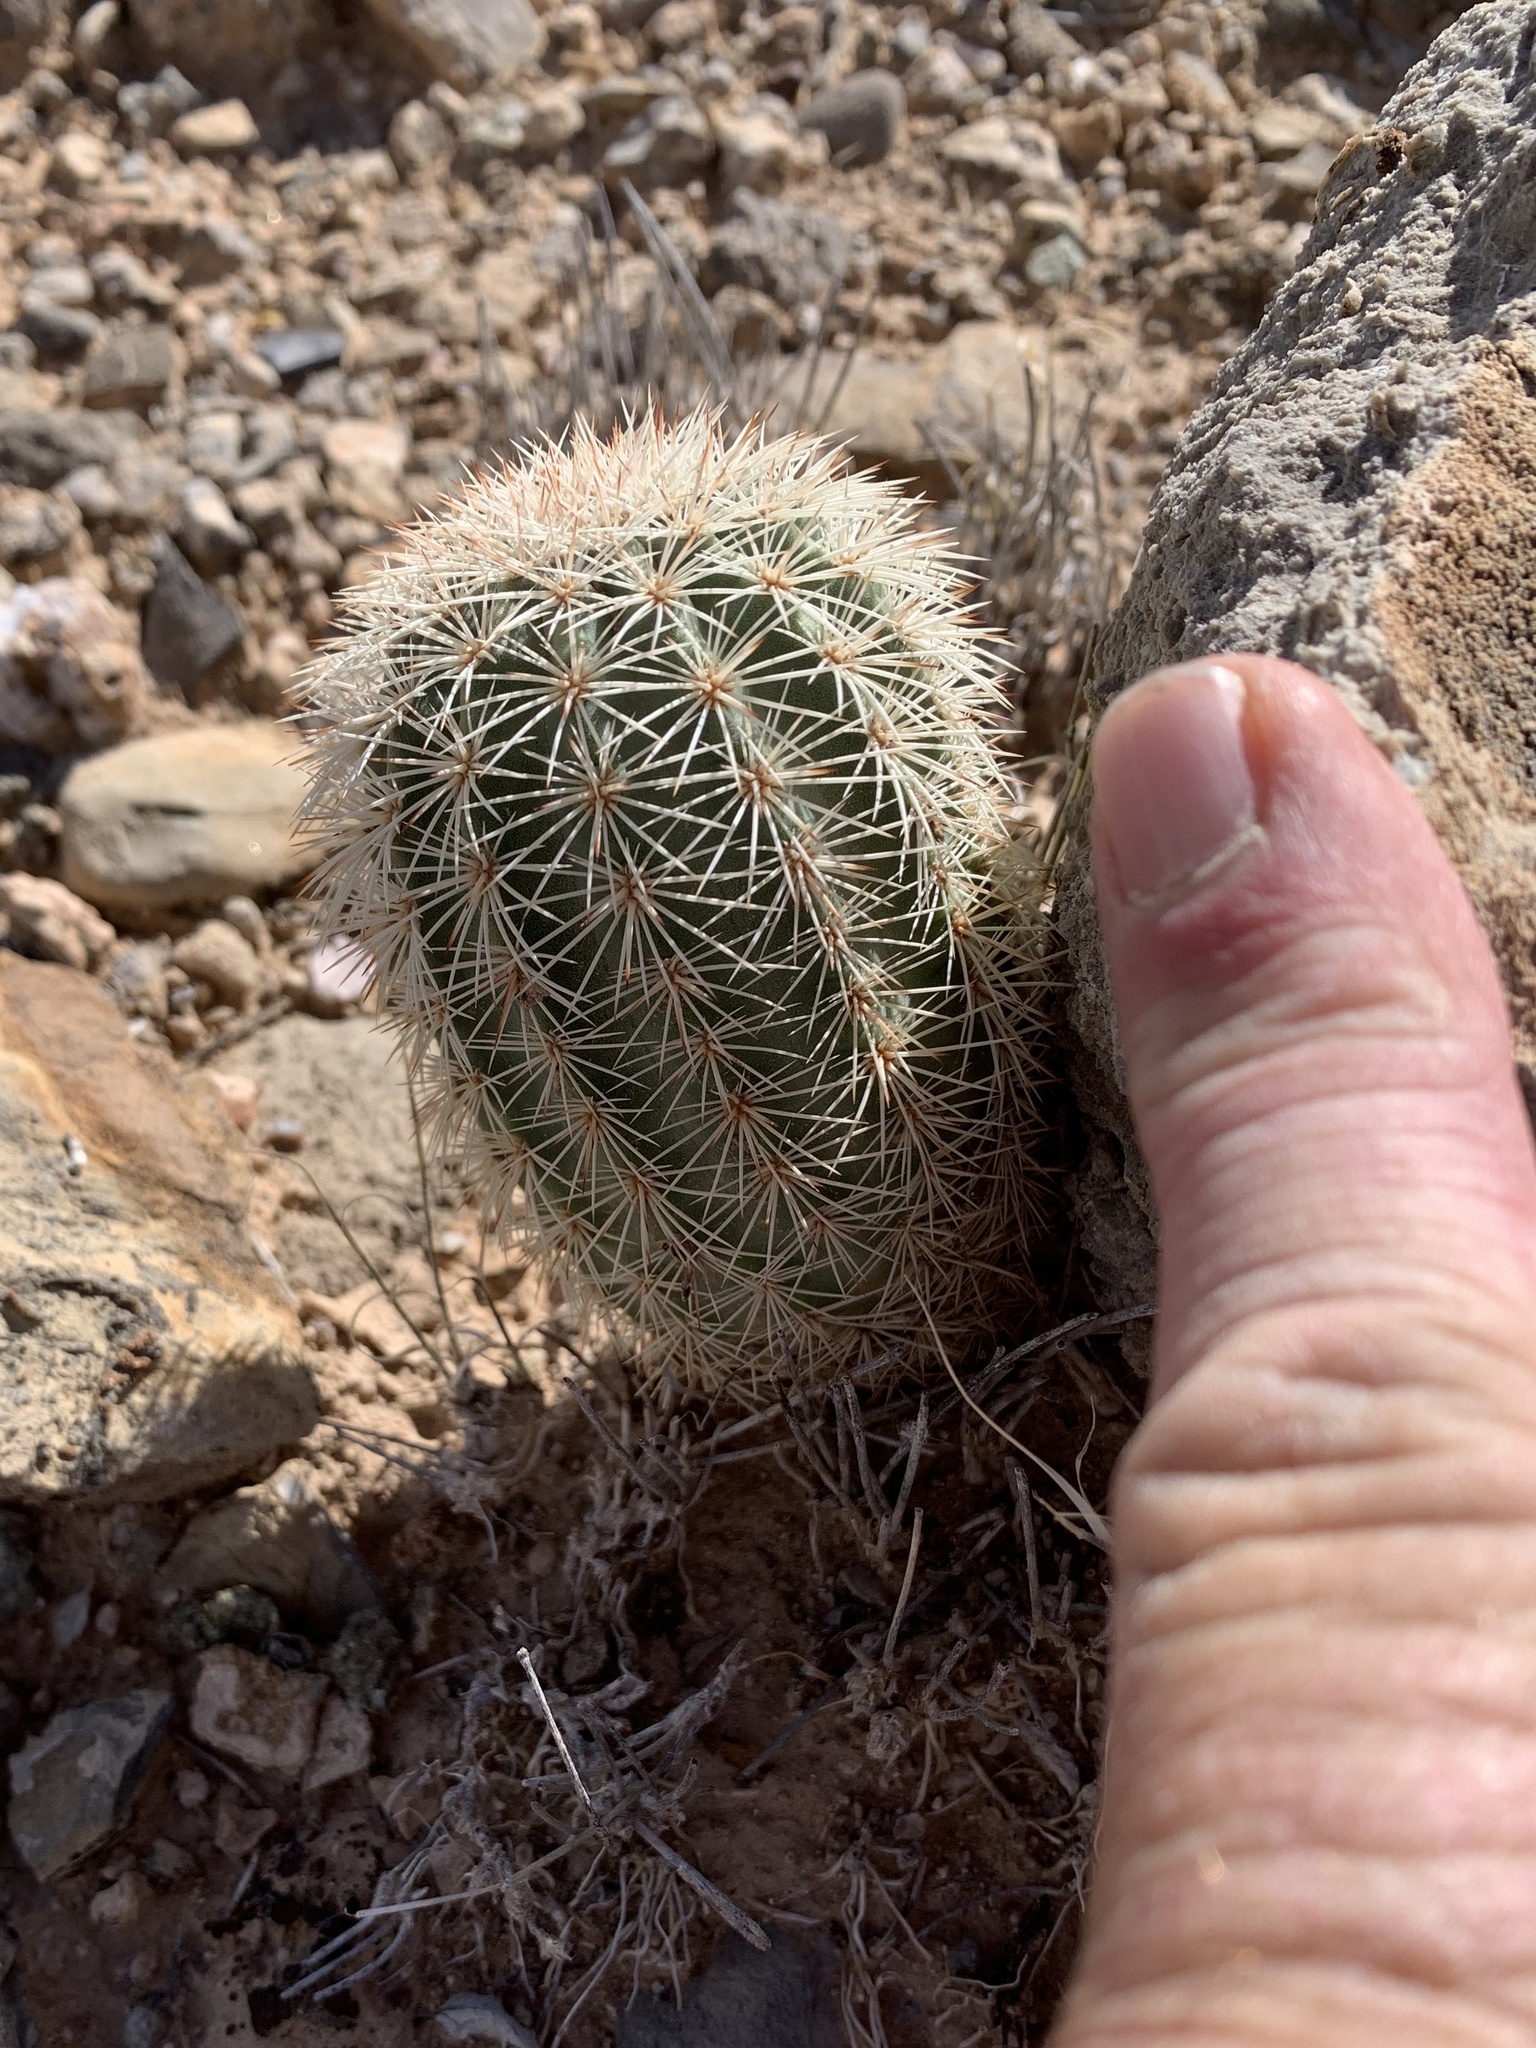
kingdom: Plantae
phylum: Tracheophyta
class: Magnoliopsida
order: Caryophyllales
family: Cactaceae
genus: Echinocereus
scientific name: Echinocereus dasyacanthus
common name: Spiny hedgehog cactus
